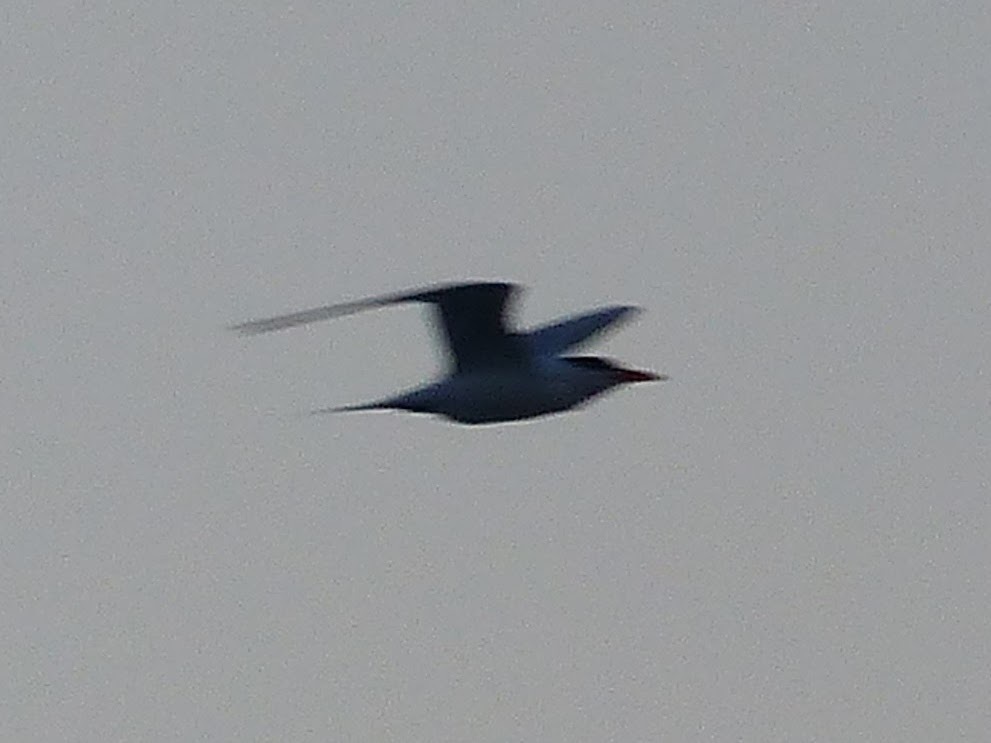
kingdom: Animalia
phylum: Chordata
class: Aves
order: Charadriiformes
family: Laridae
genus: Thalasseus
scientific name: Thalasseus maximus
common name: Royal tern
